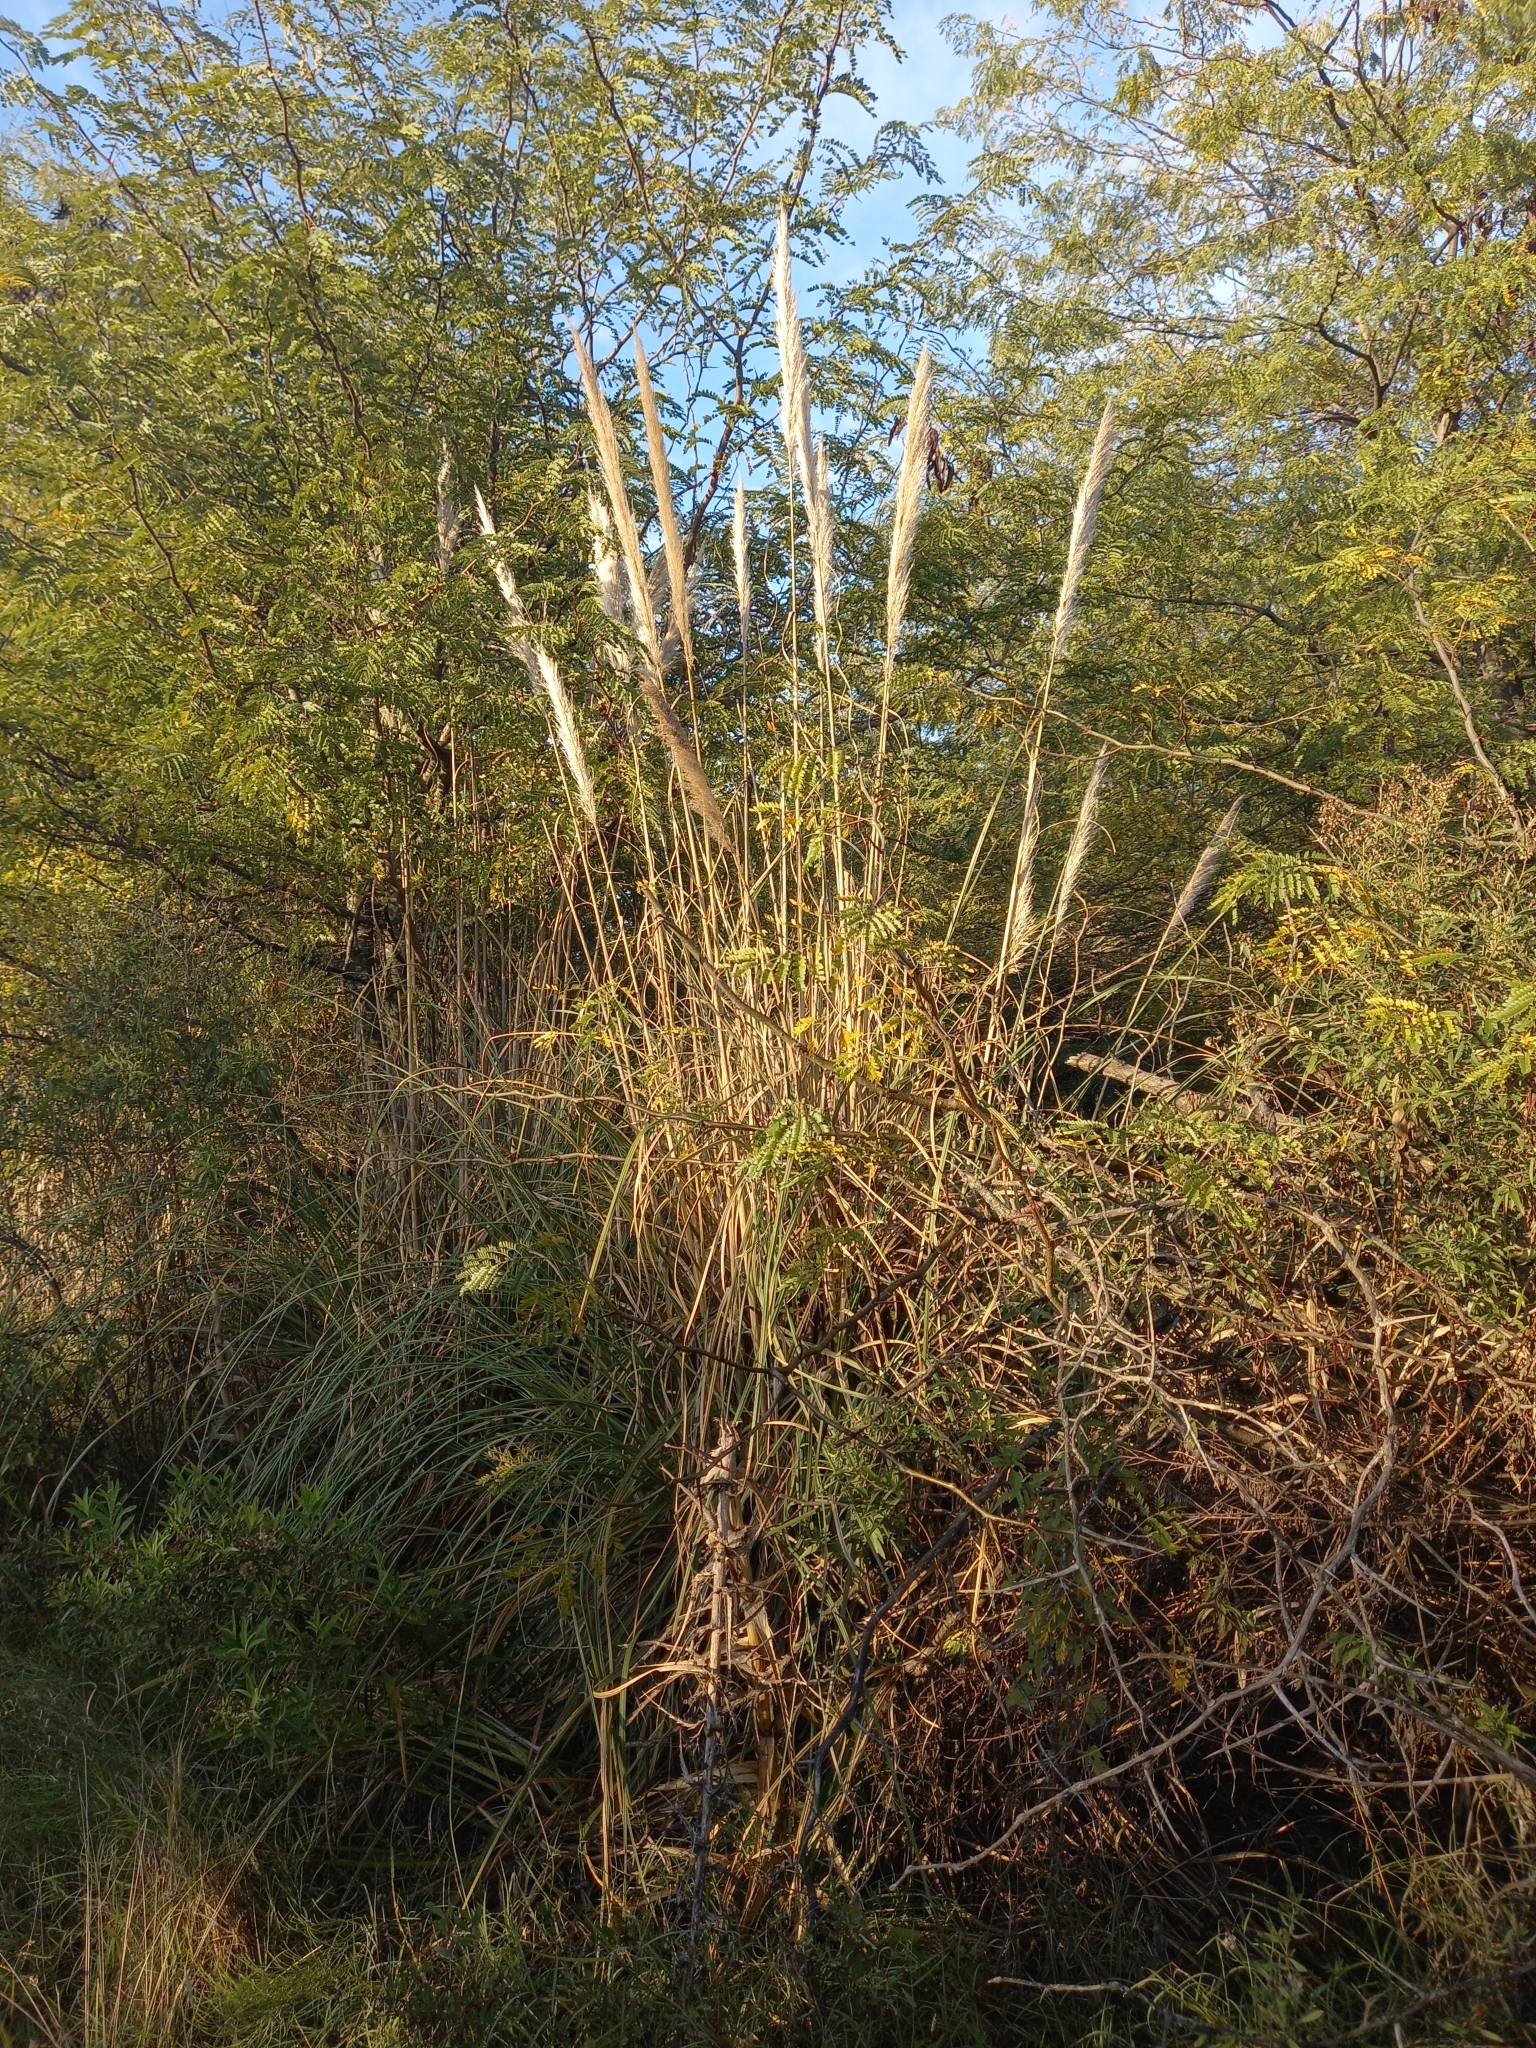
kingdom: Plantae
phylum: Tracheophyta
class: Liliopsida
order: Poales
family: Poaceae
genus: Cortaderia
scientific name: Cortaderia selloana
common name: Uruguayan pampas grass
